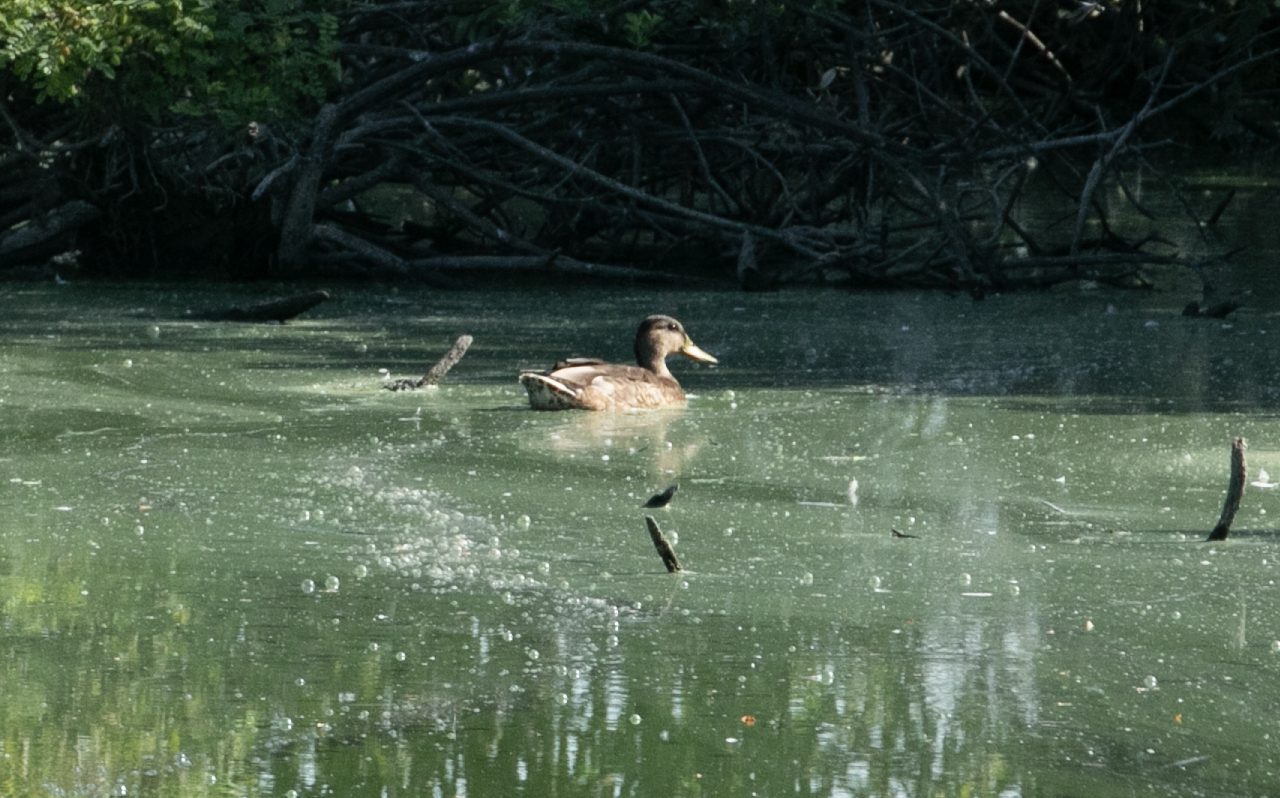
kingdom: Animalia
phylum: Chordata
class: Aves
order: Anseriformes
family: Anatidae
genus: Anas
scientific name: Anas platyrhynchos
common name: Mallard
